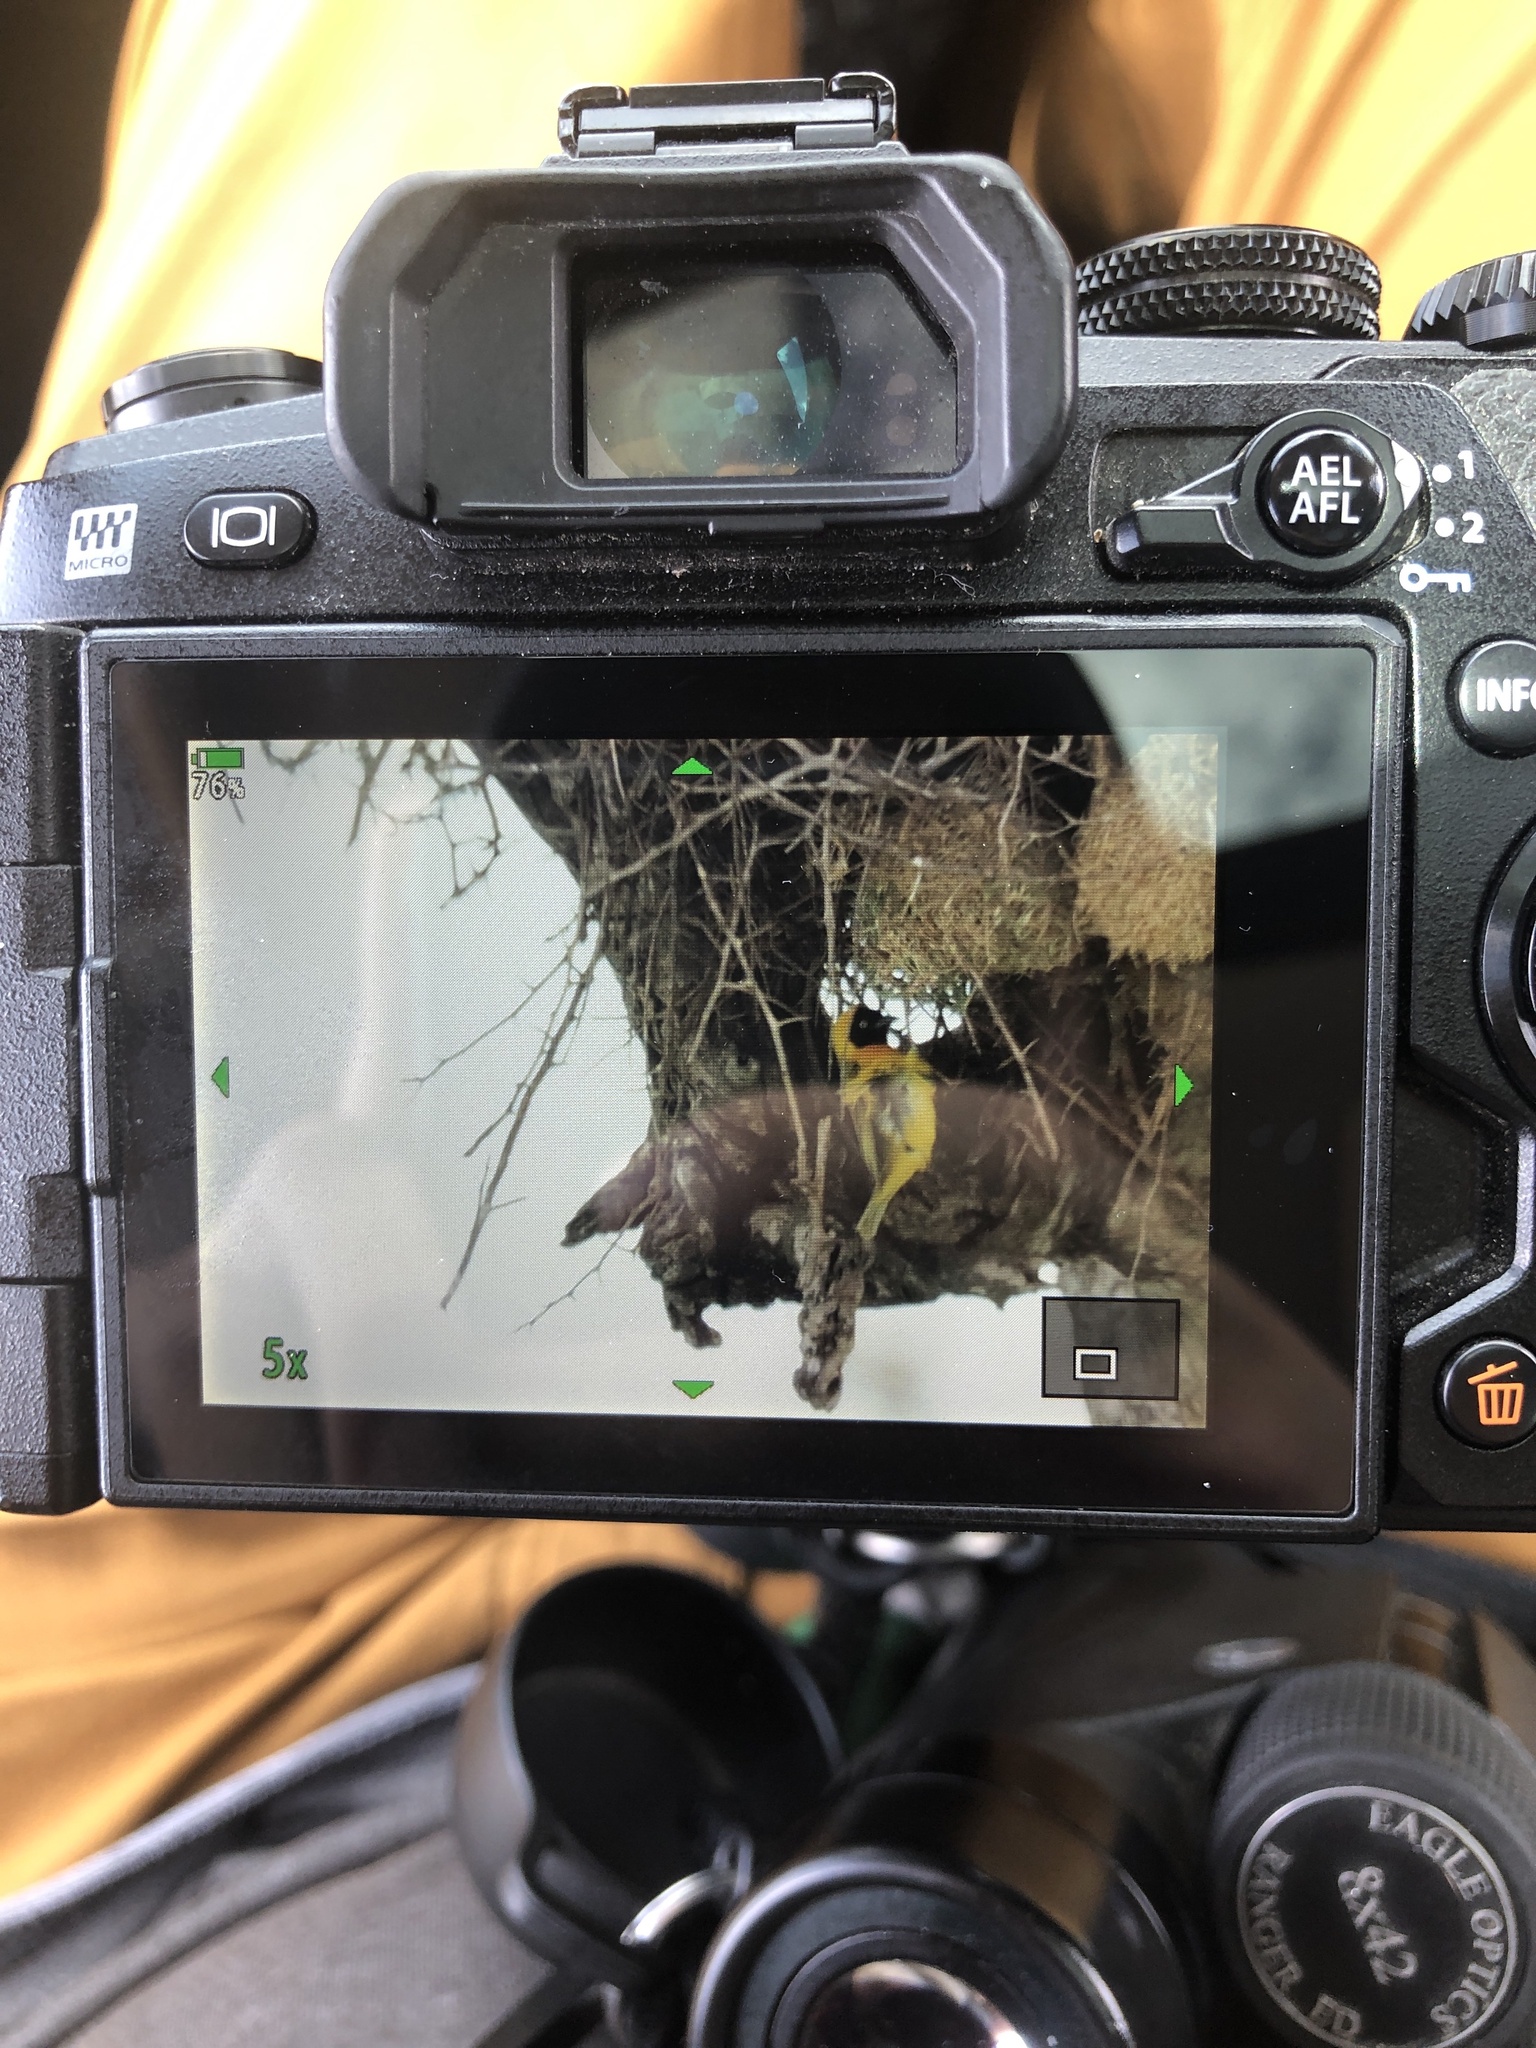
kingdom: Animalia
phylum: Chordata
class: Aves
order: Passeriformes
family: Ploceidae
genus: Ploceus
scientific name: Ploceus intermedius
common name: Lesser masked weaver
